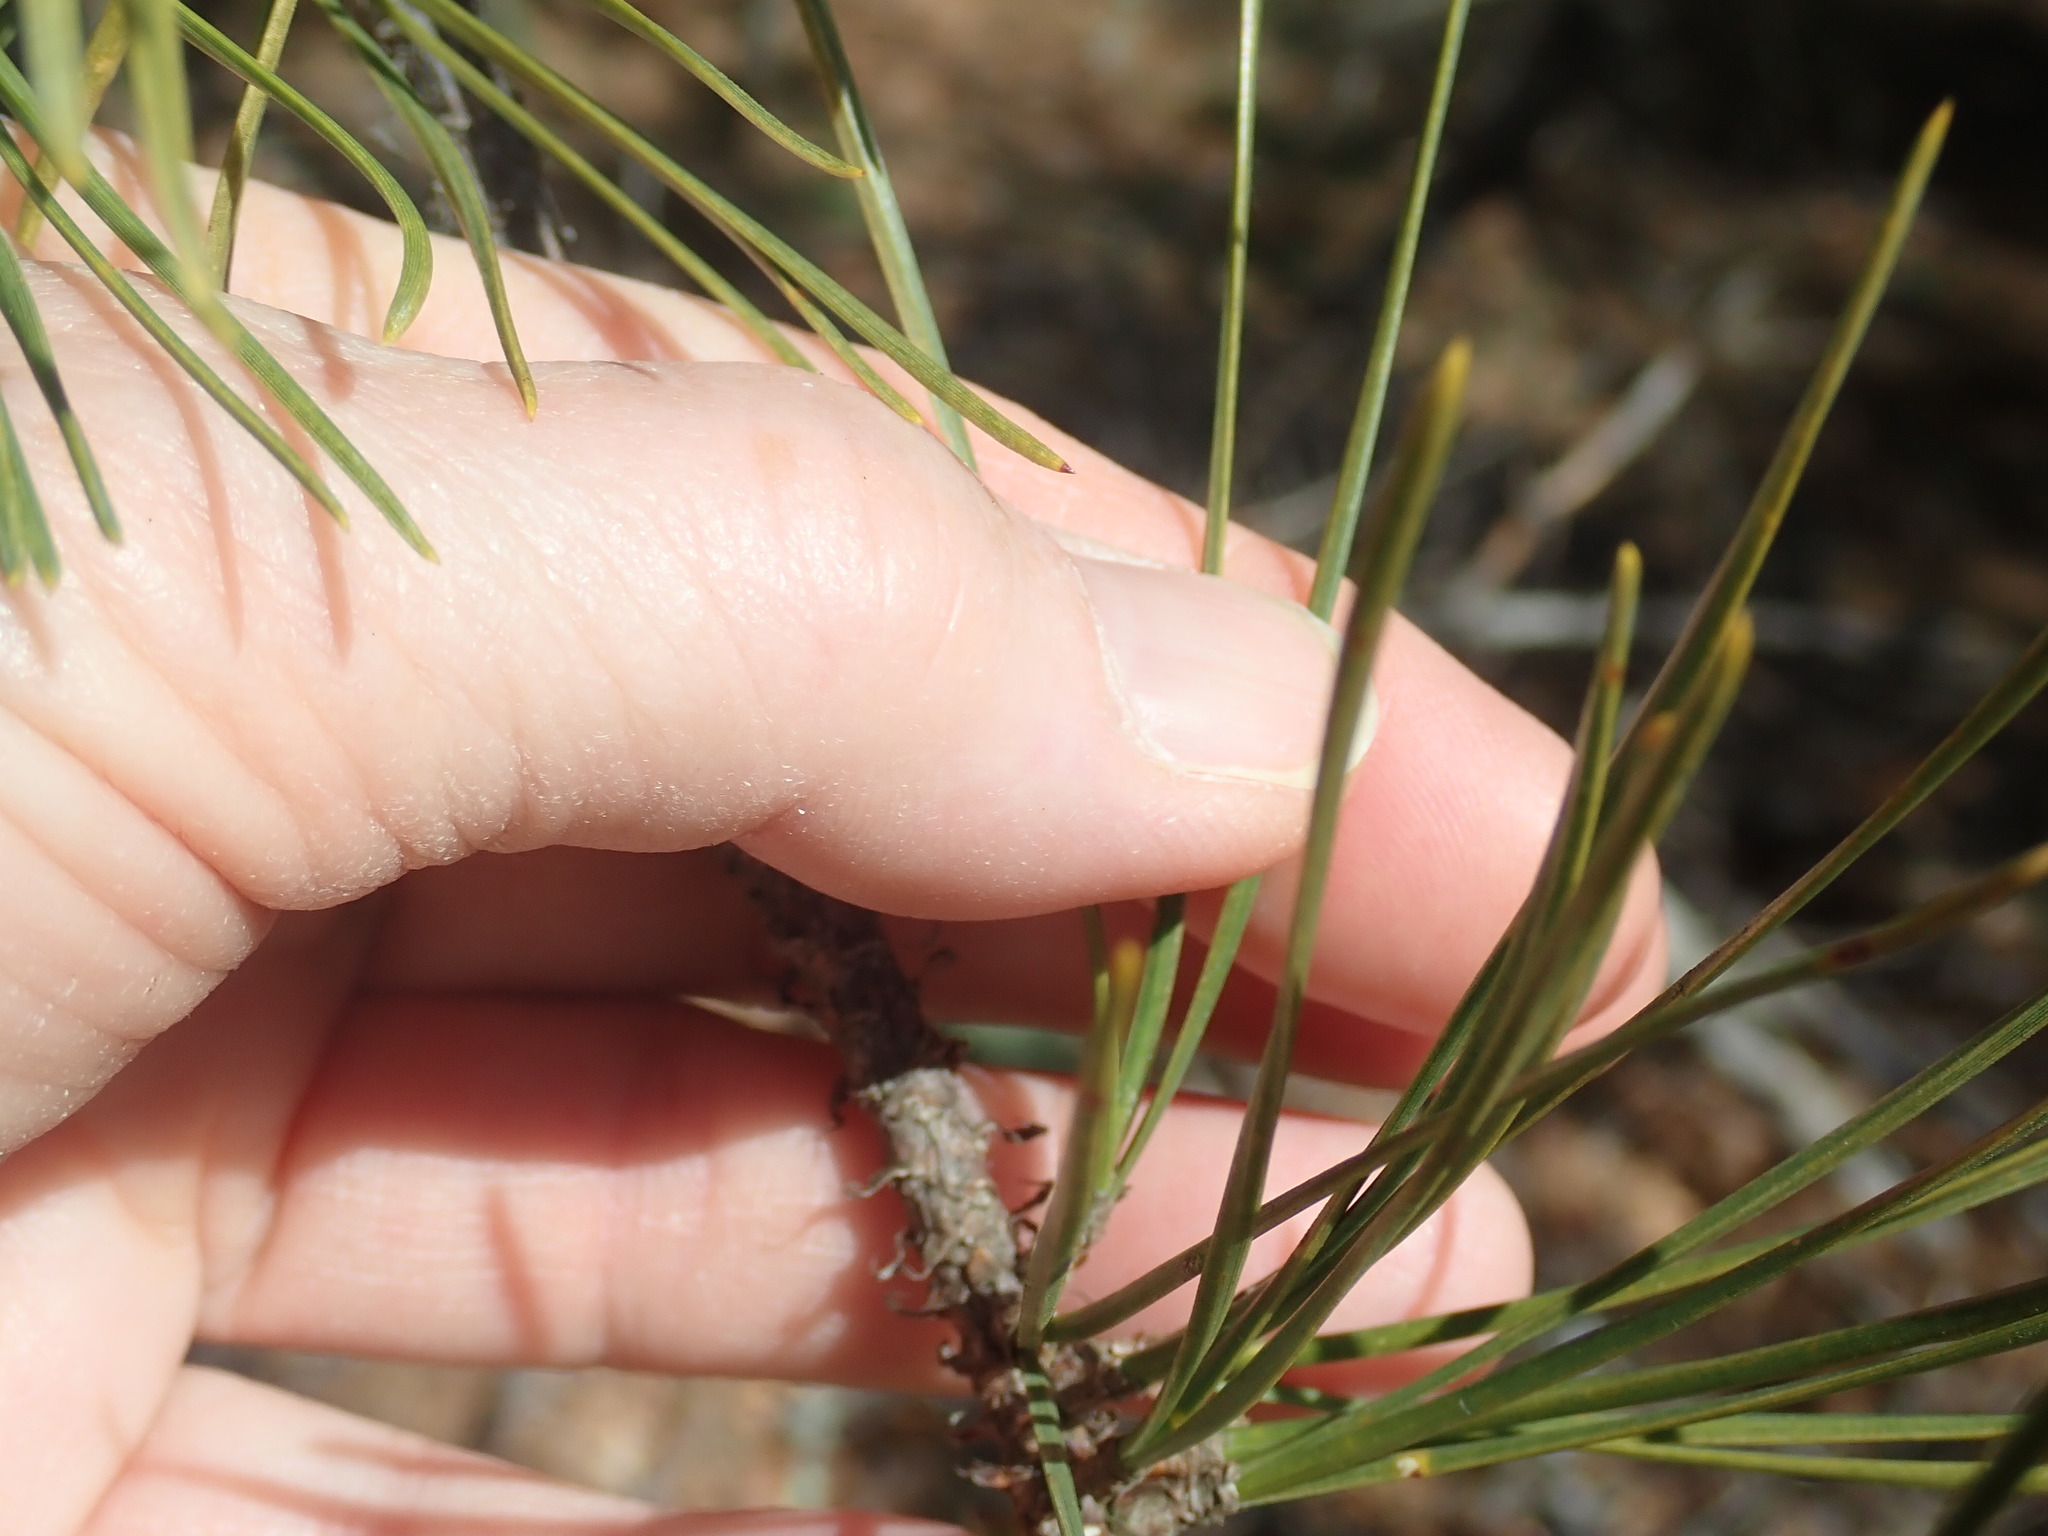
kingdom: Plantae
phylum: Tracheophyta
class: Pinopsida
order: Pinales
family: Pinaceae
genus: Pinus
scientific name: Pinus rigida
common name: Pitch pine
